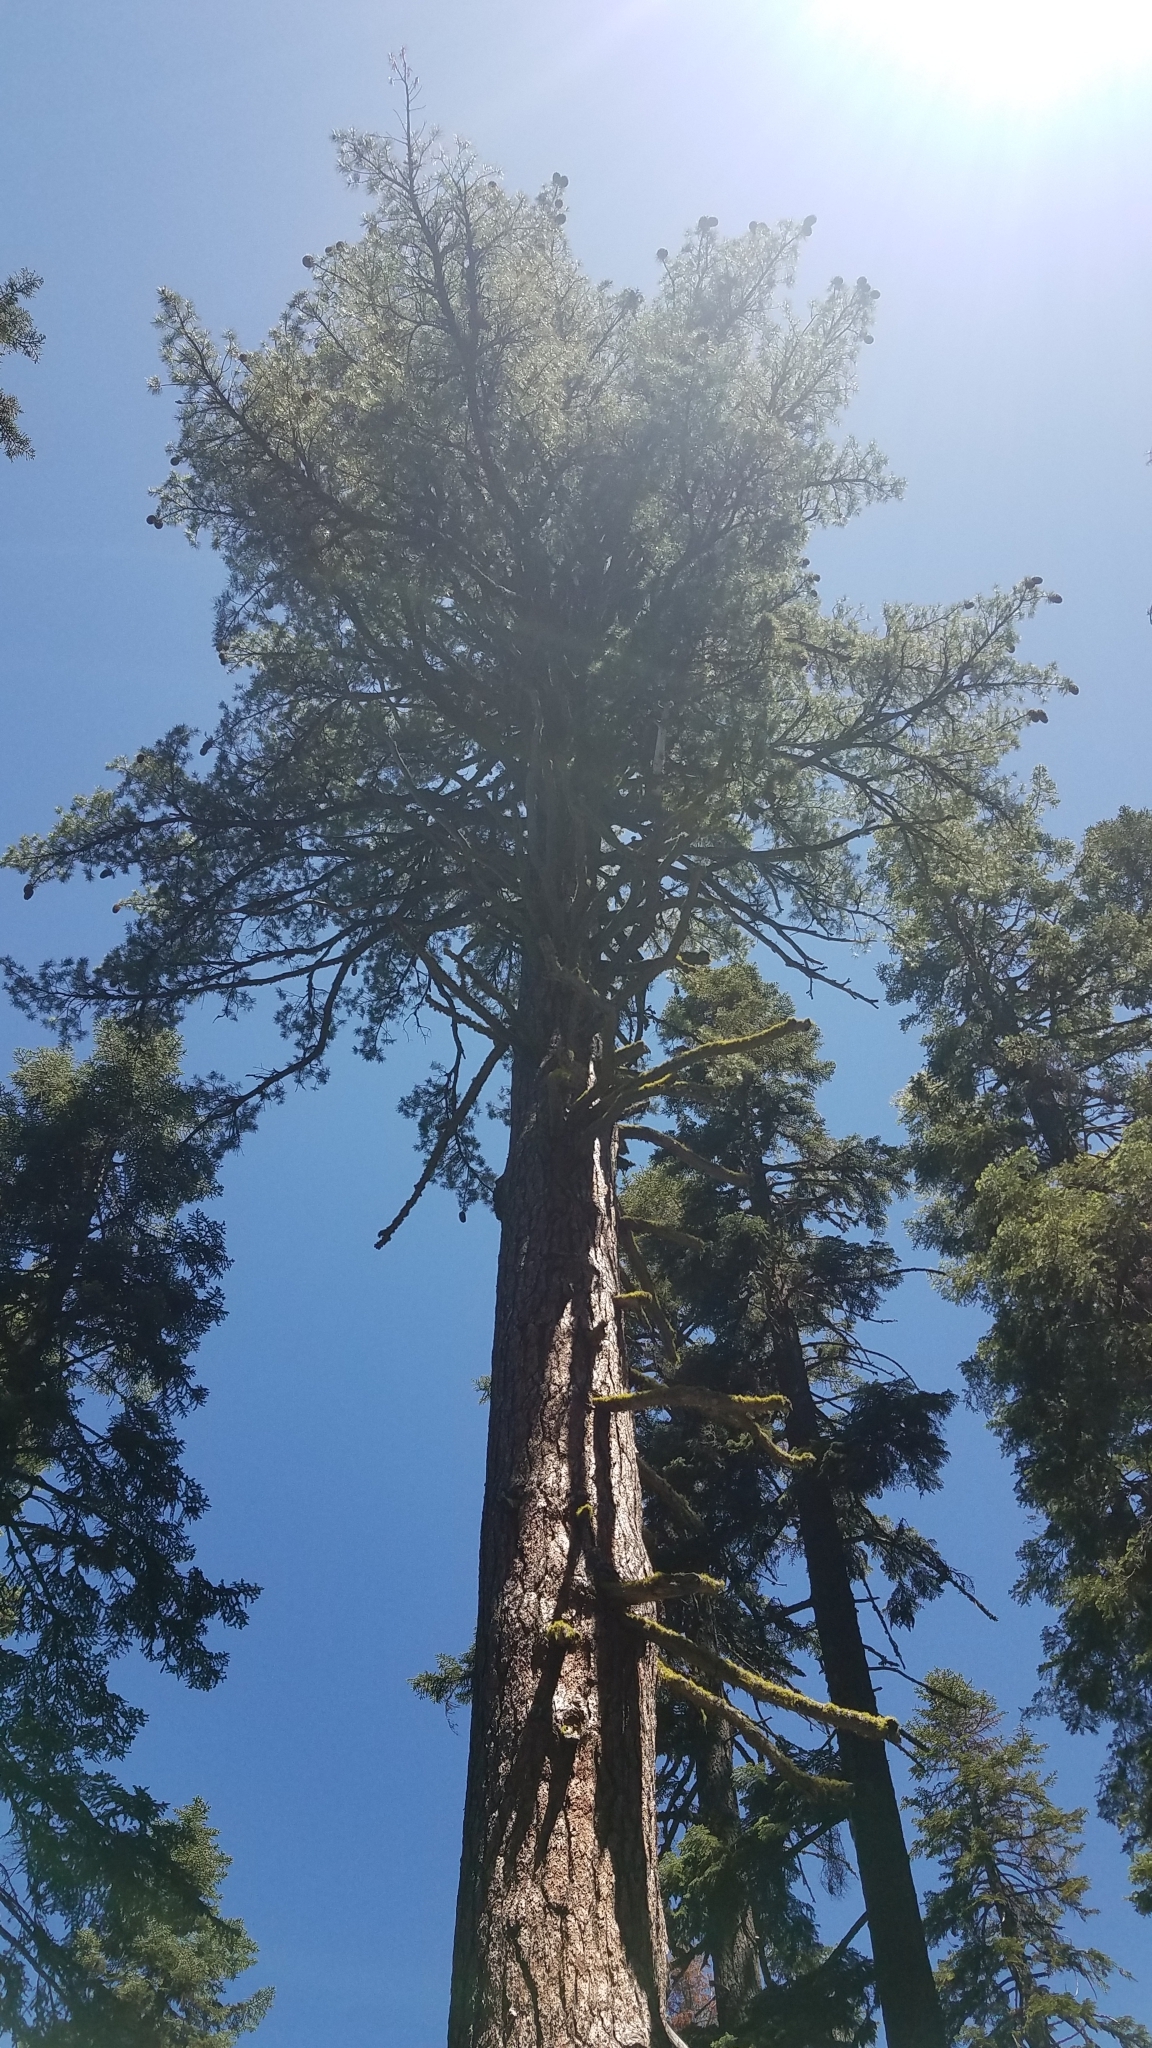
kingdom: Plantae
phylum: Tracheophyta
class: Pinopsida
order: Pinales
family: Pinaceae
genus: Pinus
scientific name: Pinus lambertiana
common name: Sugar pine
